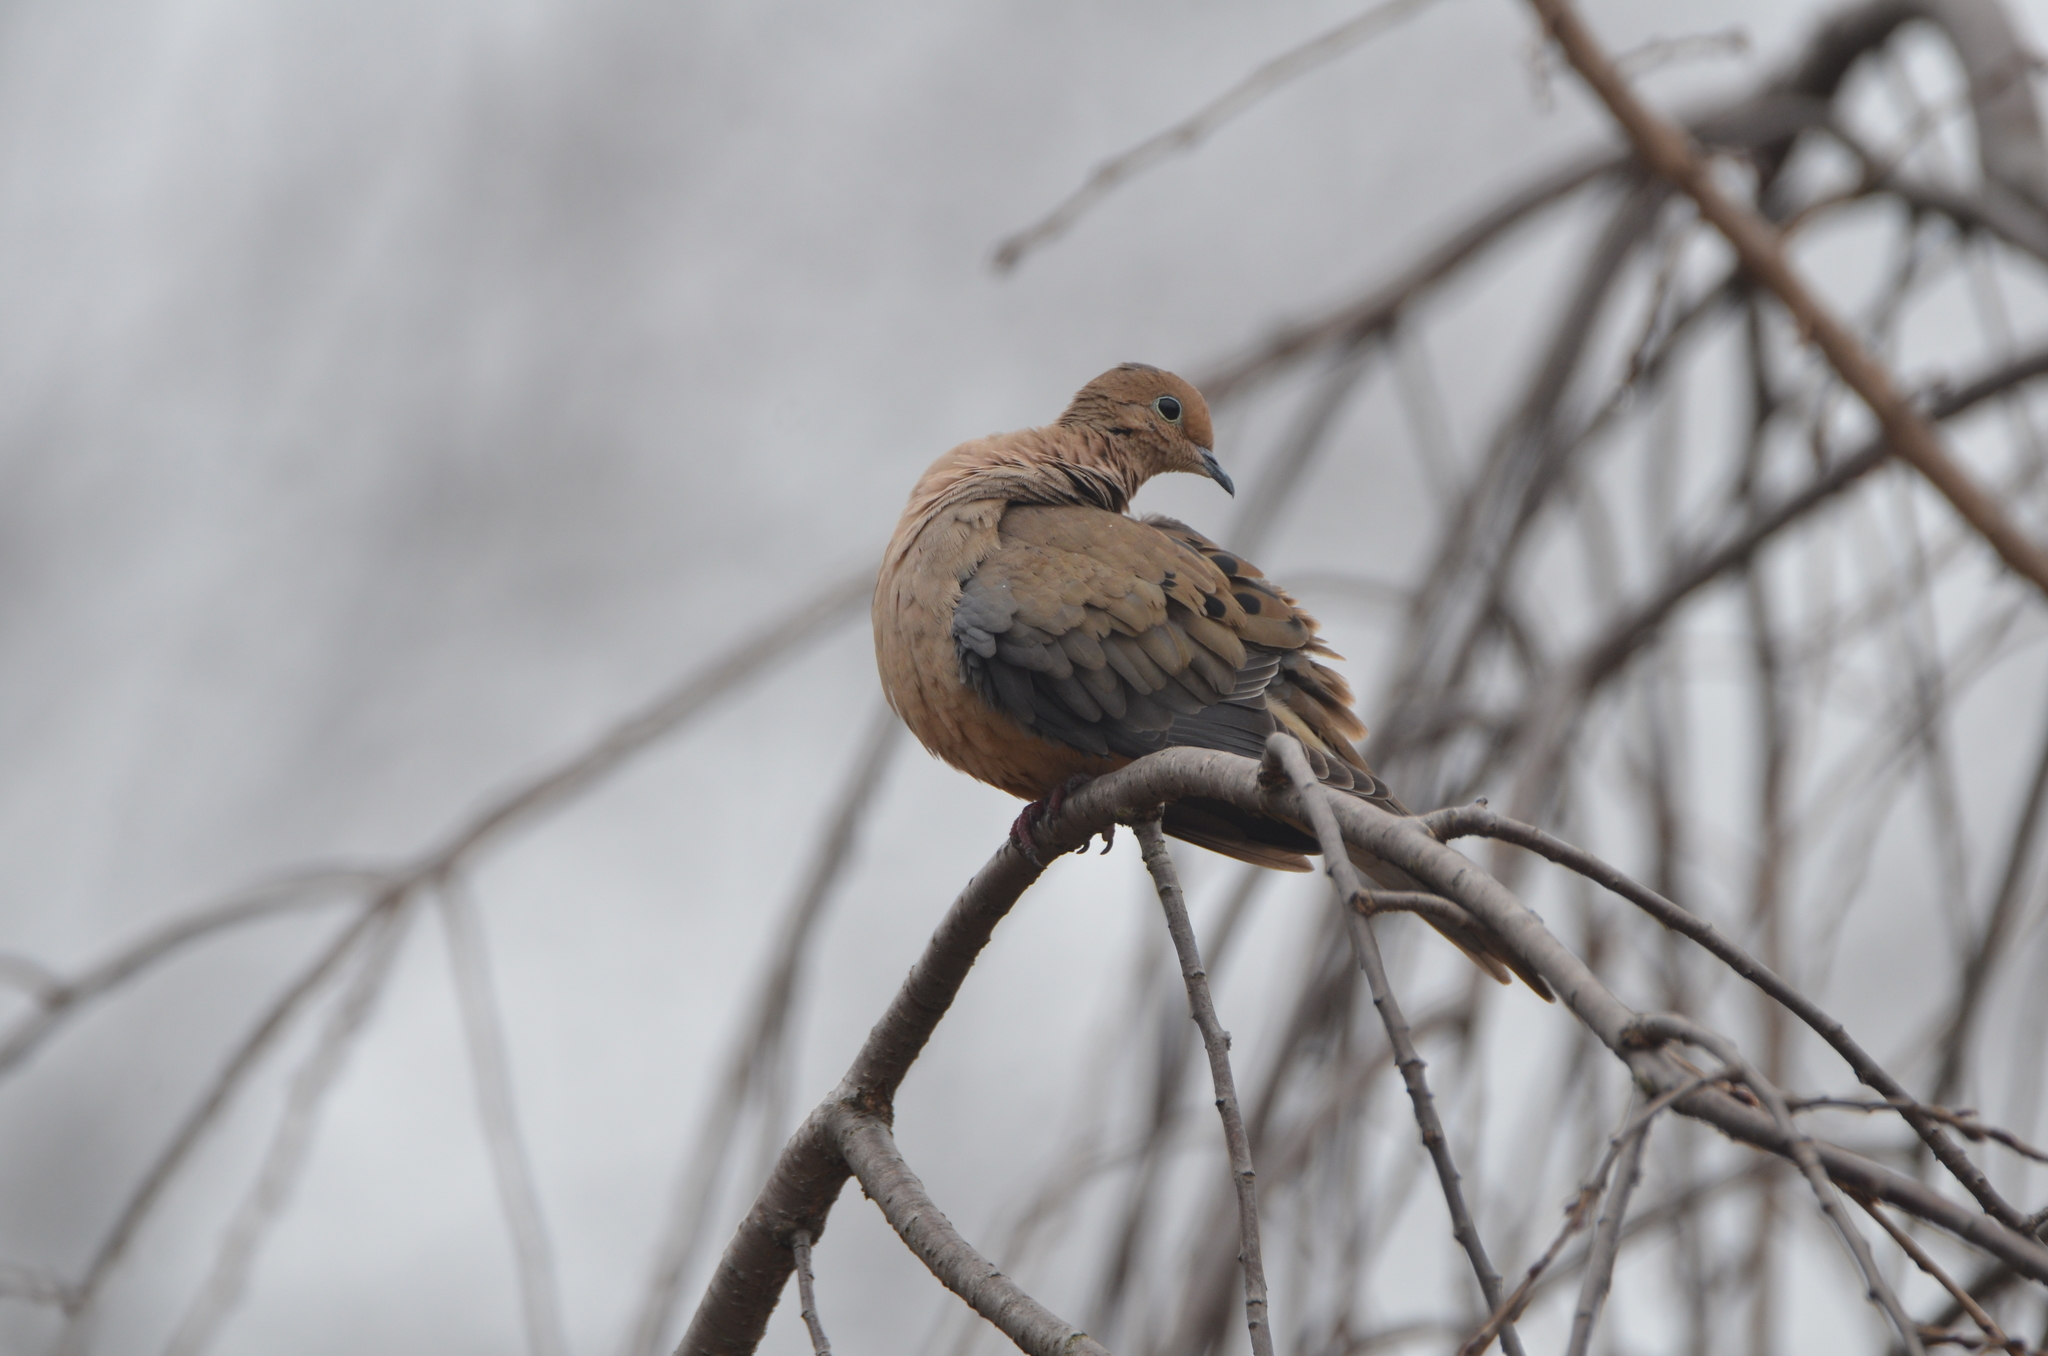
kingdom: Animalia
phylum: Chordata
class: Aves
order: Columbiformes
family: Columbidae
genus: Zenaida
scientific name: Zenaida macroura
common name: Mourning dove
